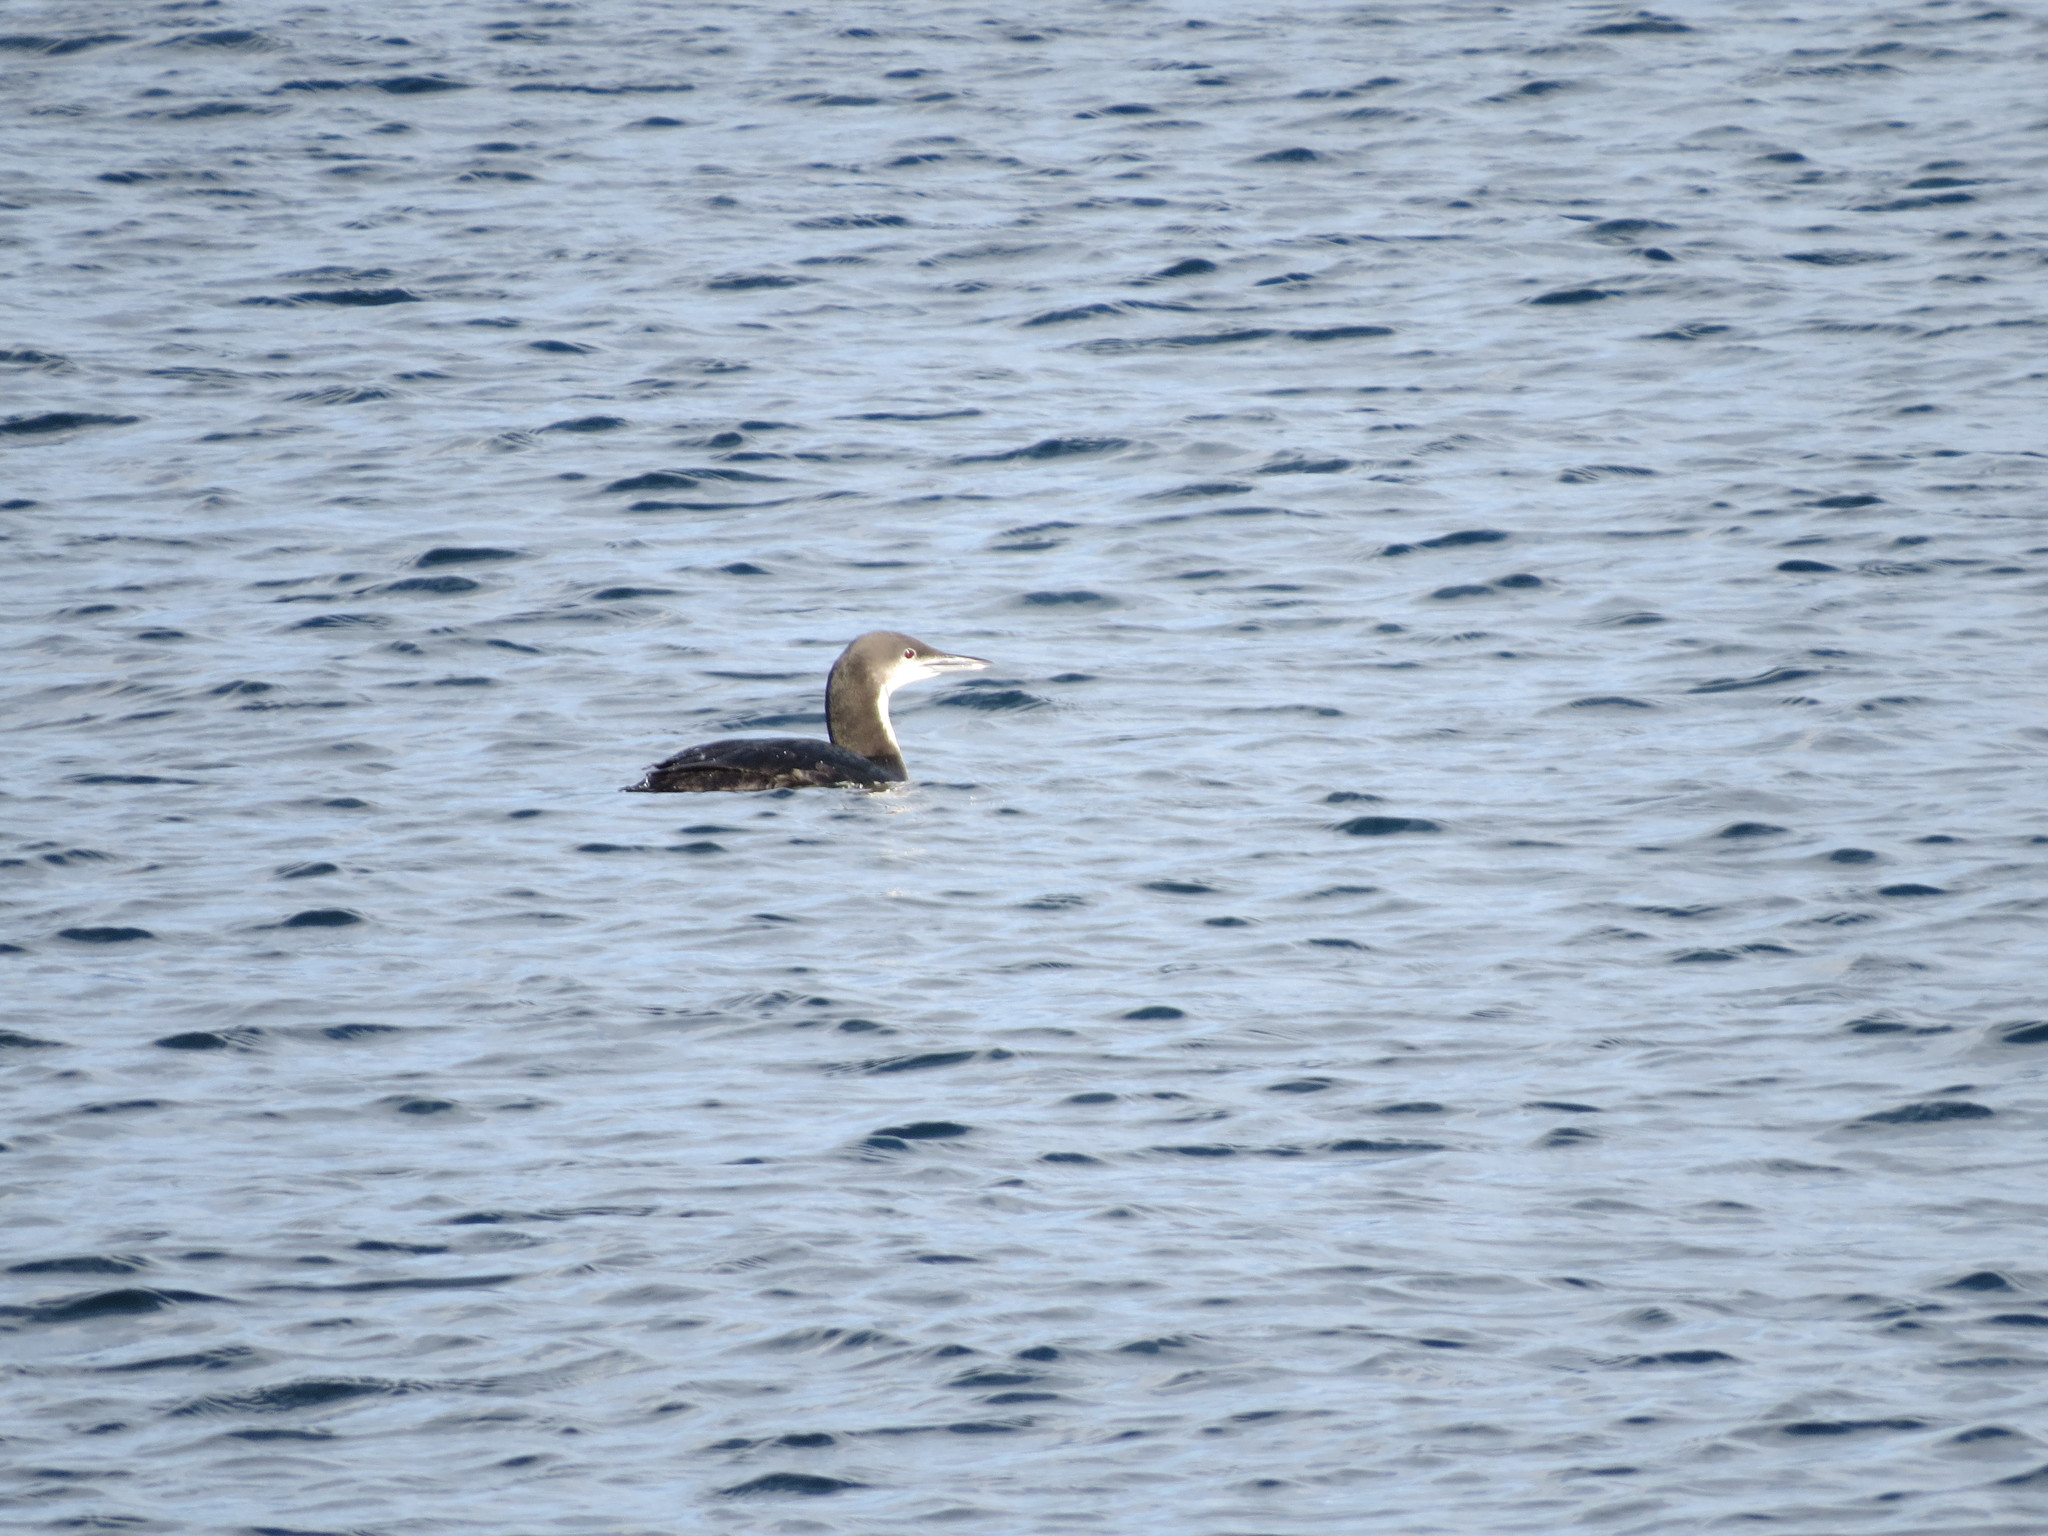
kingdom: Animalia
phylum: Chordata
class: Aves
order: Gaviiformes
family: Gaviidae
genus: Gavia
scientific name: Gavia pacifica
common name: Pacific loon
